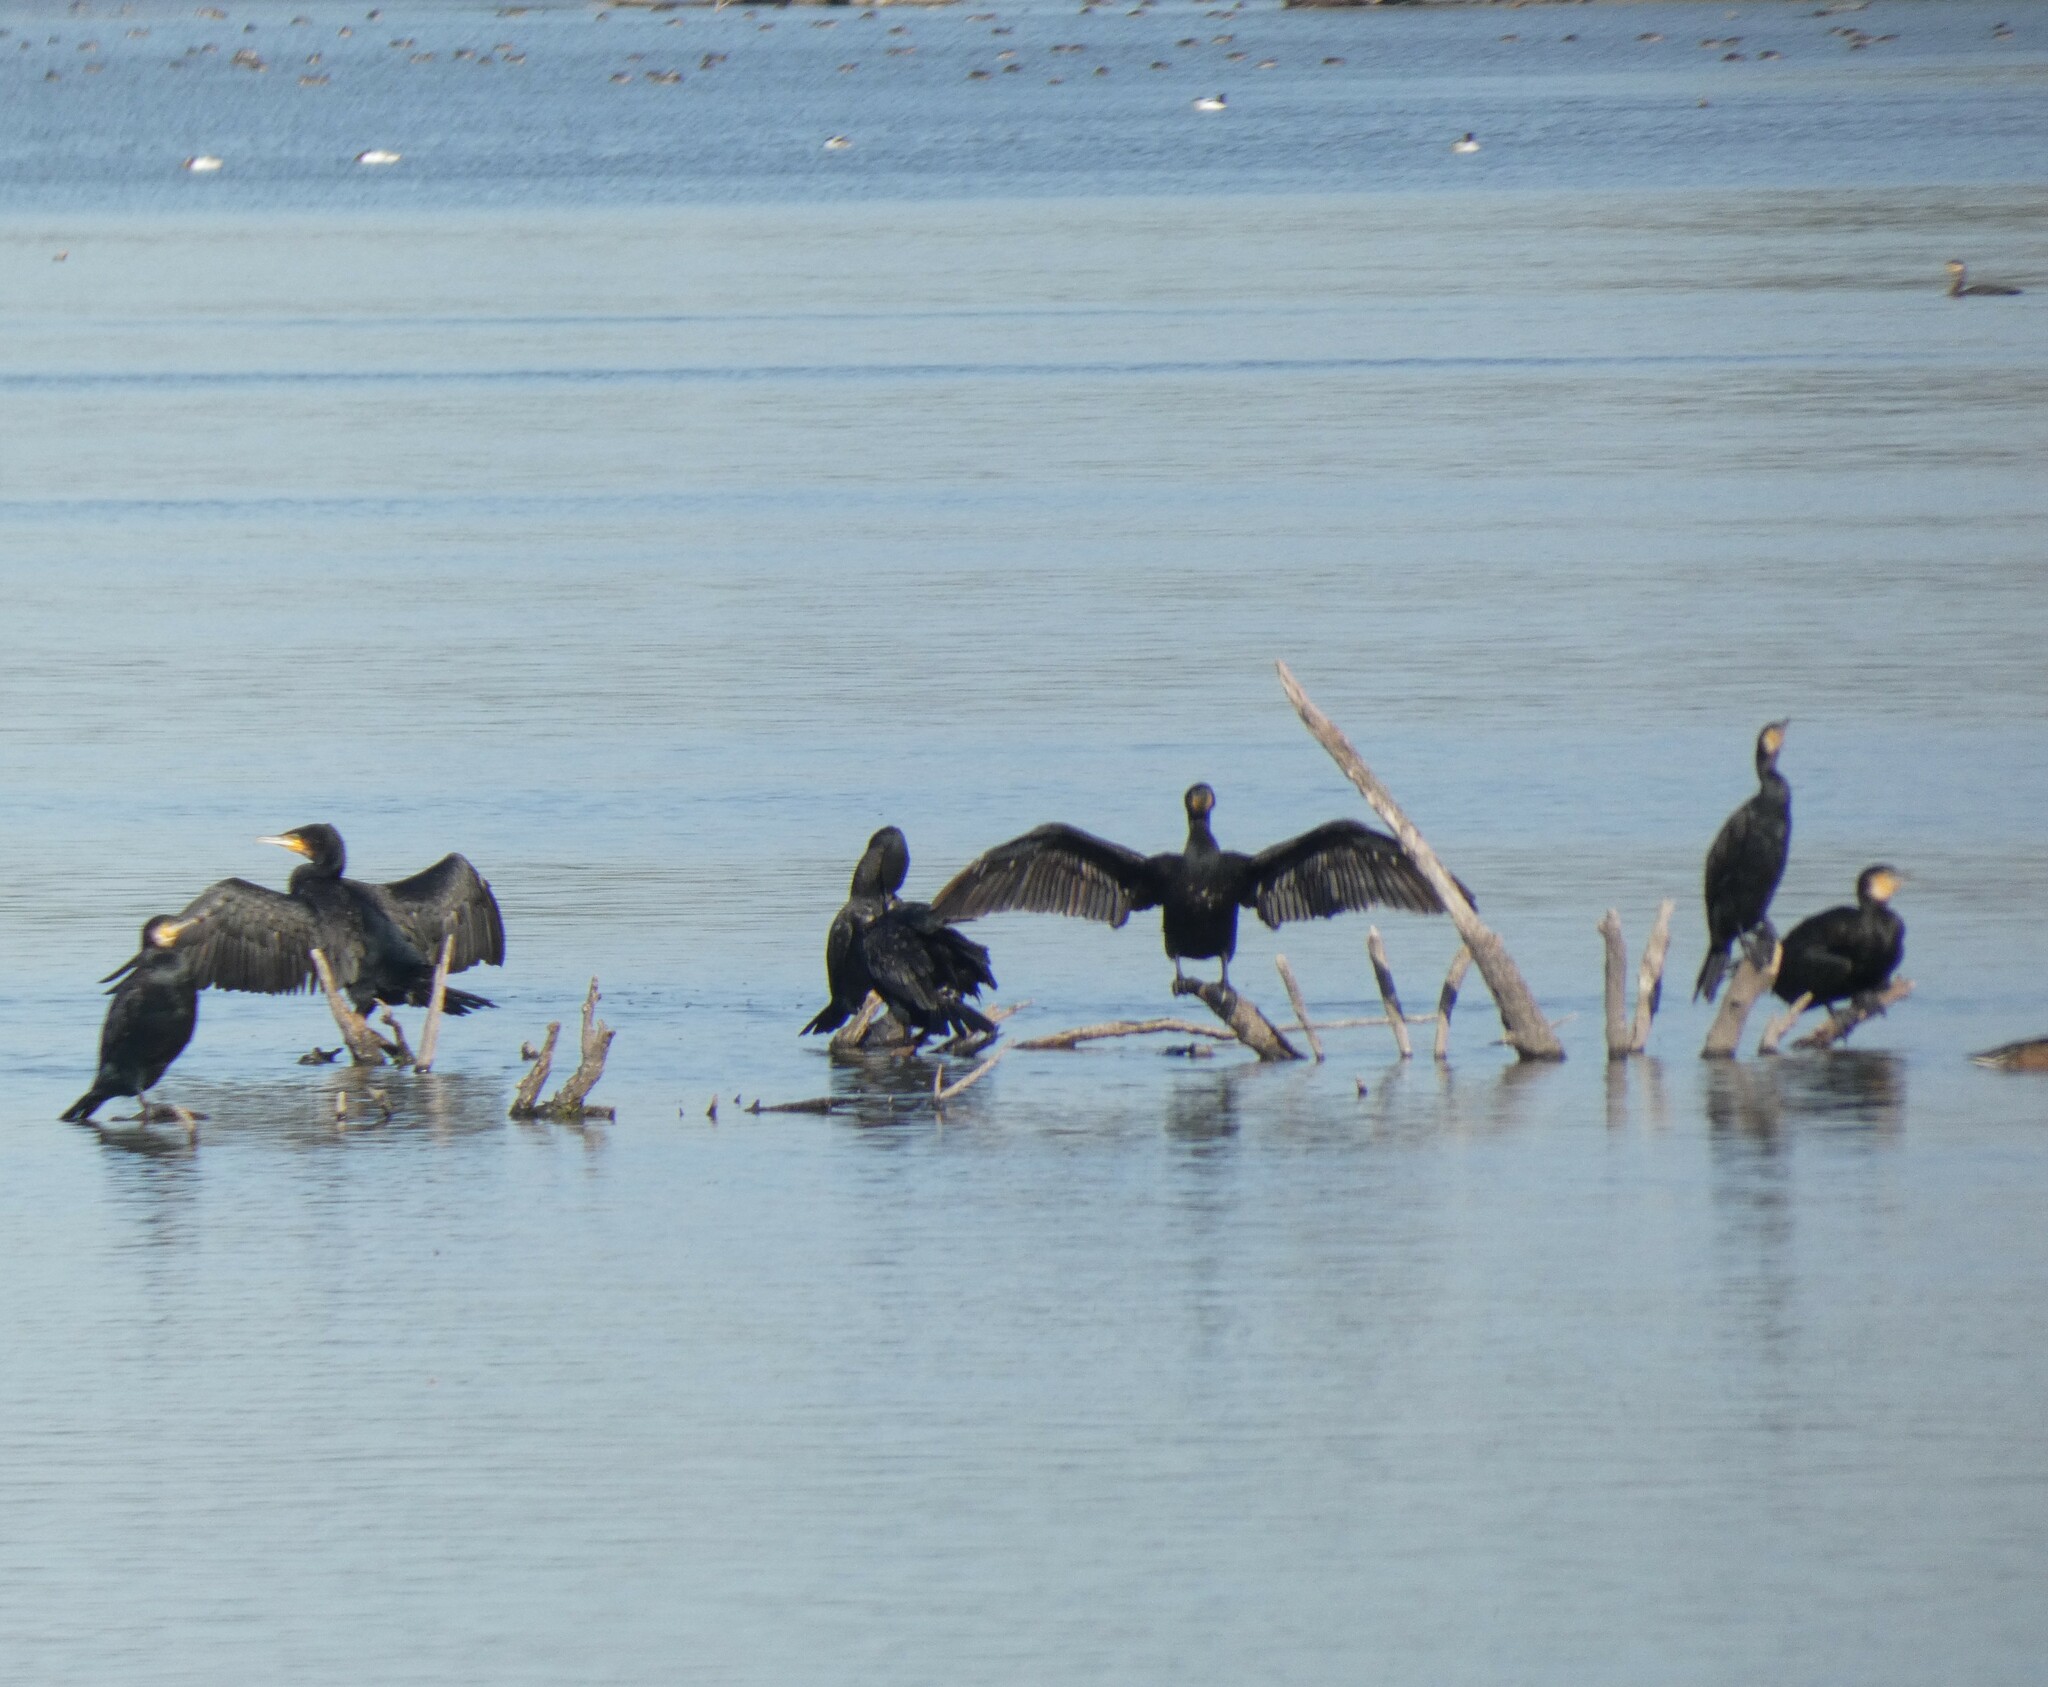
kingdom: Animalia
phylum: Chordata
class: Aves
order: Suliformes
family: Phalacrocoracidae
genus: Phalacrocorax
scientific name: Phalacrocorax carbo
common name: Great cormorant
